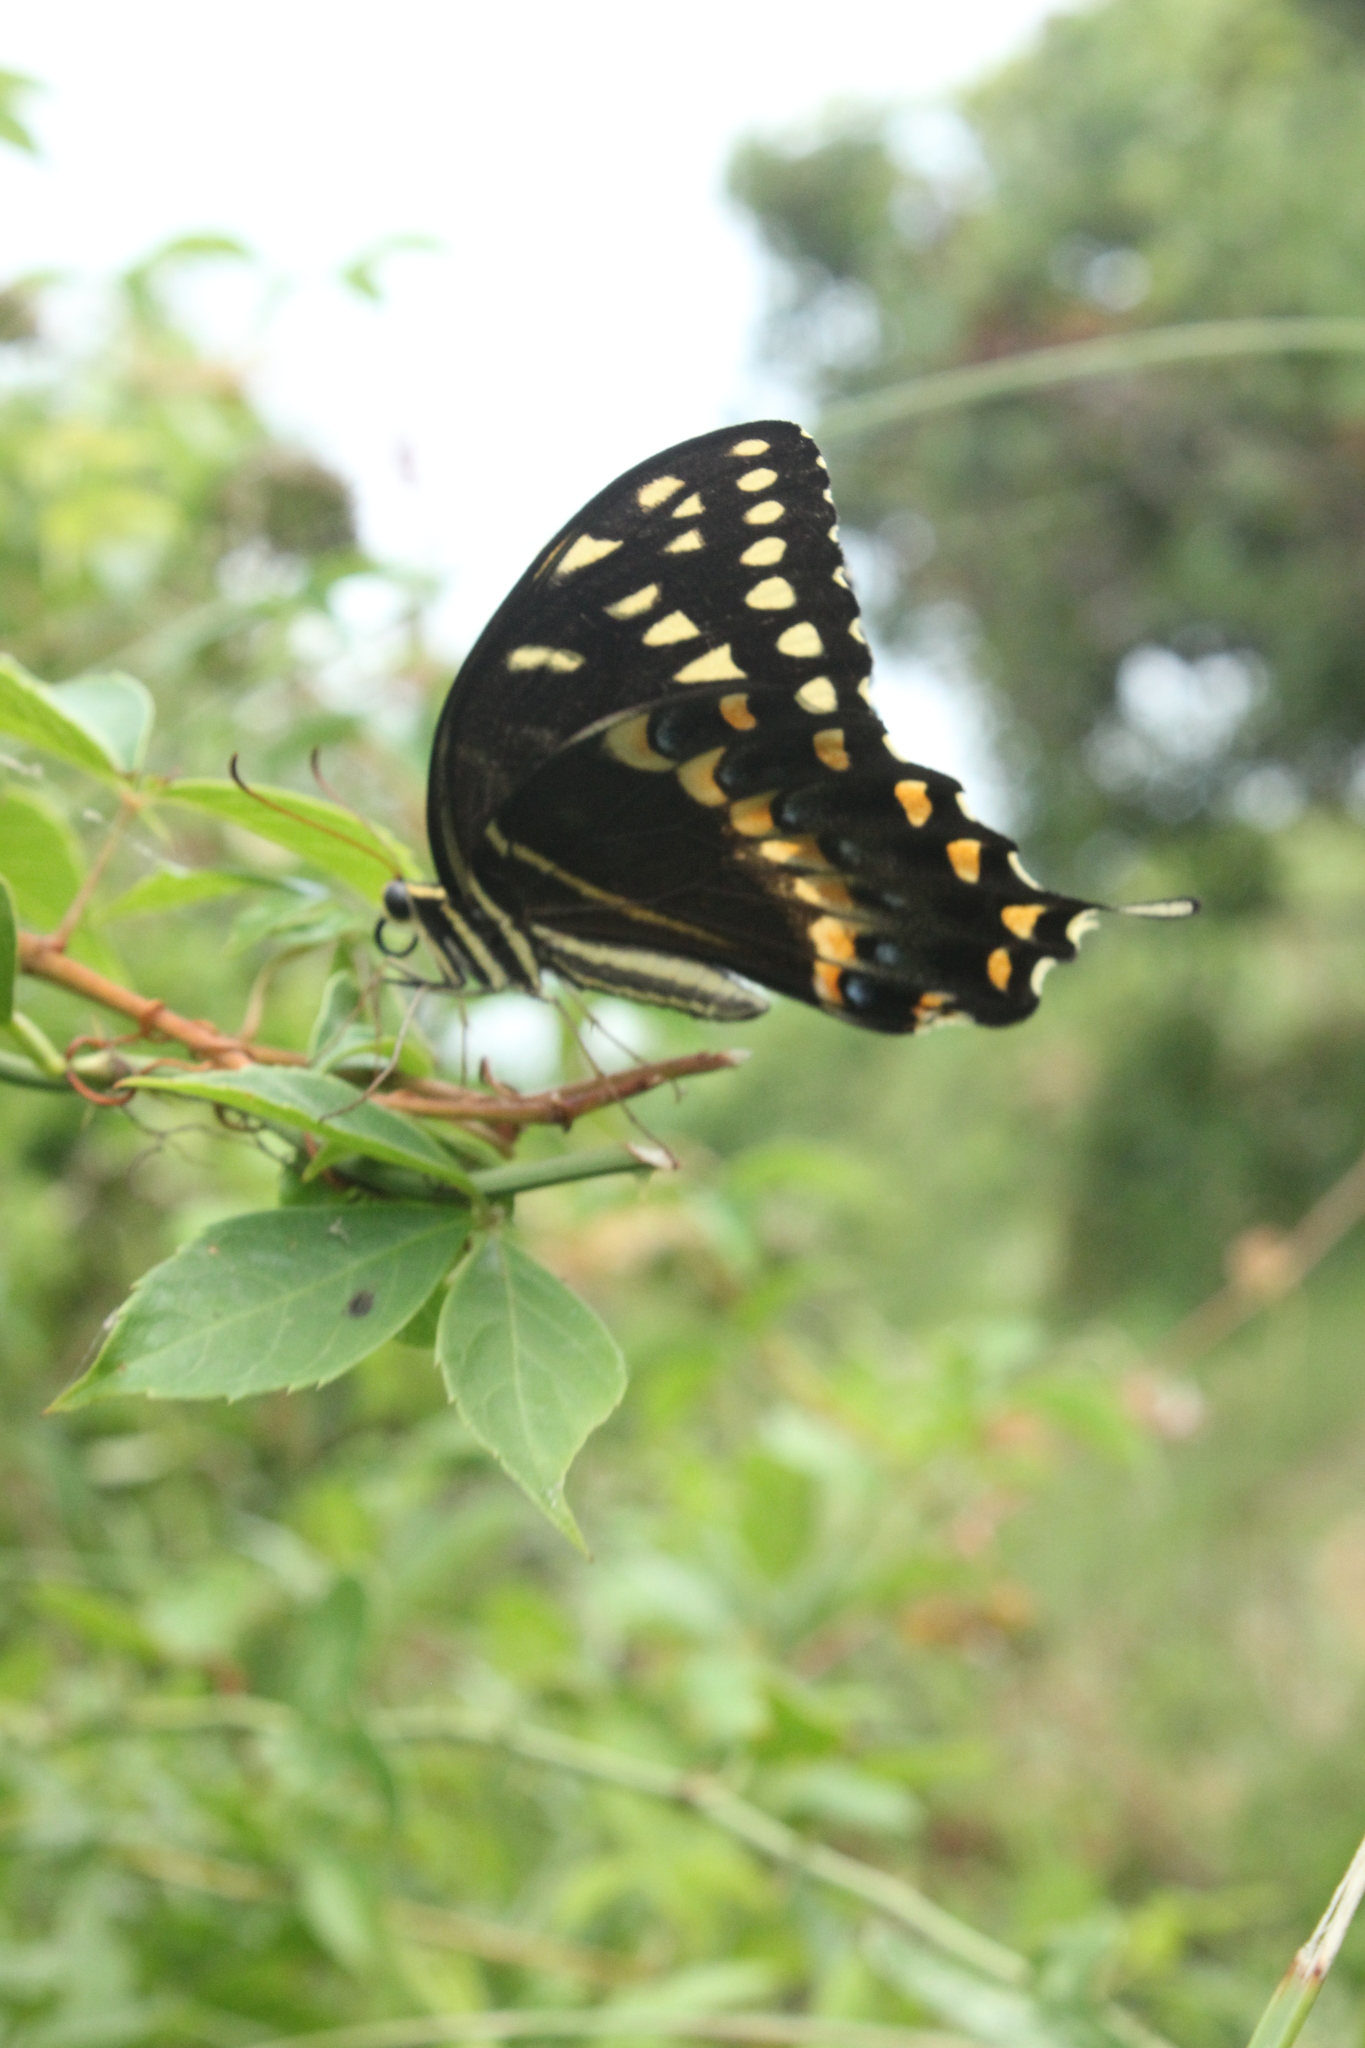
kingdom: Animalia
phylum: Arthropoda
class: Insecta
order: Lepidoptera
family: Papilionidae
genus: Papilio
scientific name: Papilio palamedes
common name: Palamedes swallowtail
